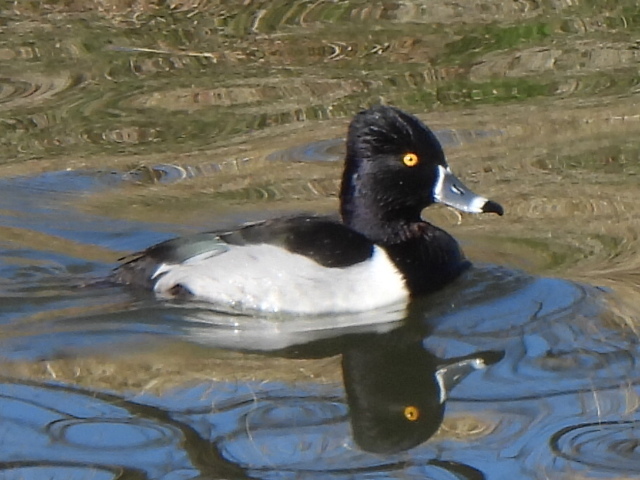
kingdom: Animalia
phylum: Chordata
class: Aves
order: Anseriformes
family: Anatidae
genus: Aythya
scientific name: Aythya collaris
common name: Ring-necked duck
